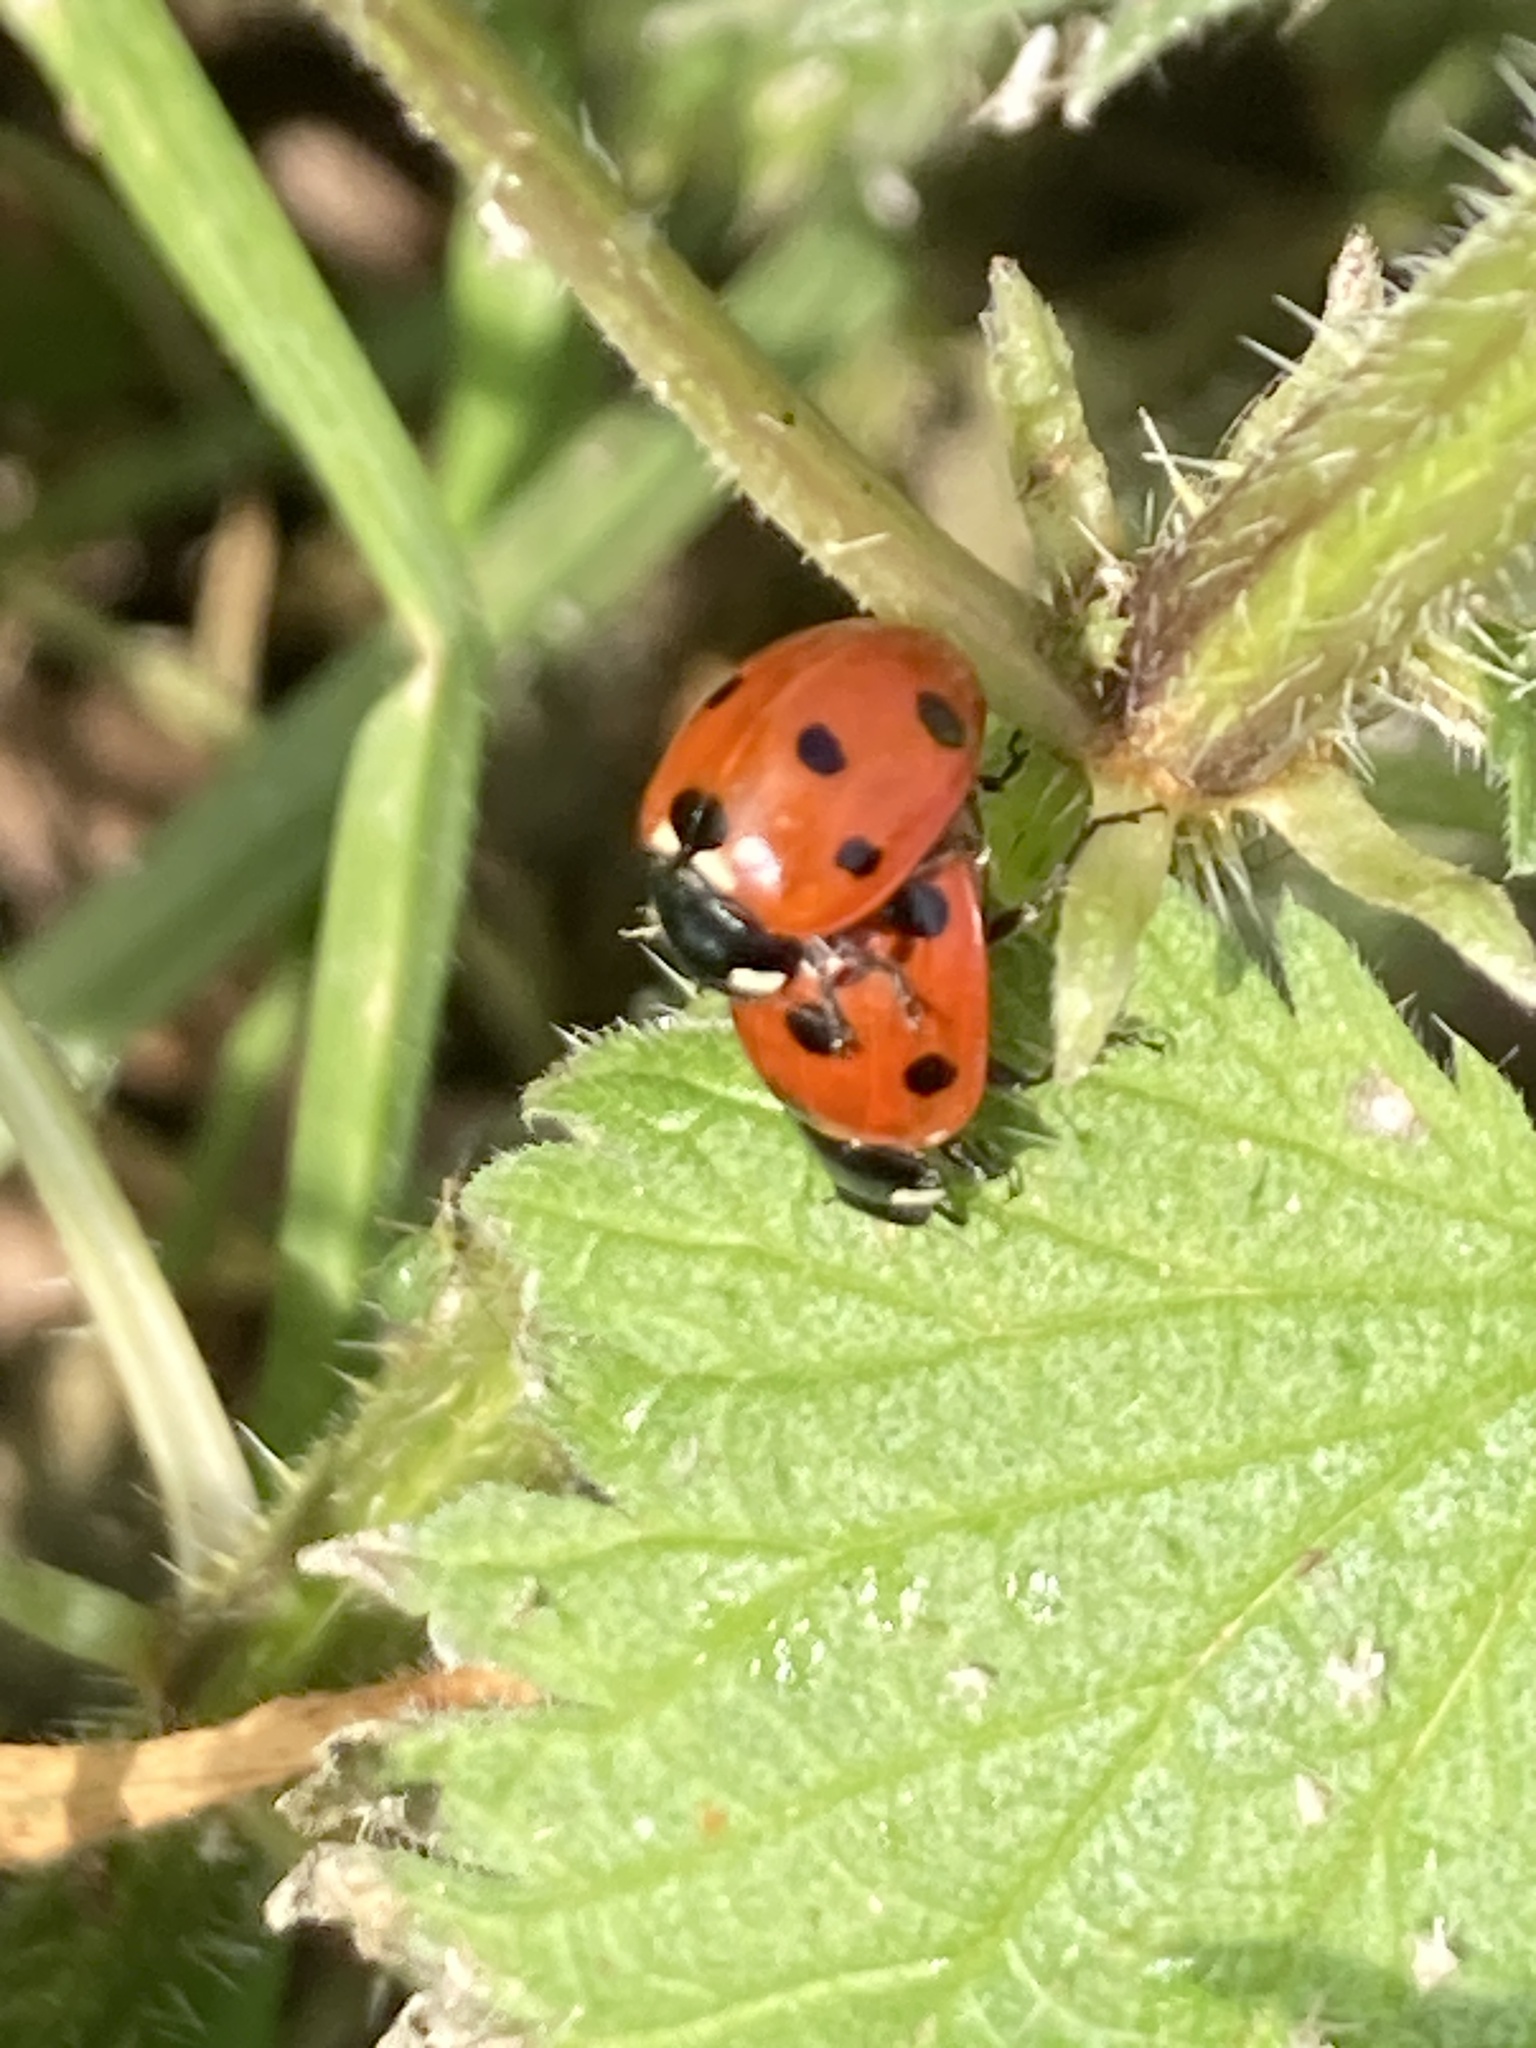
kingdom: Animalia
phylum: Arthropoda
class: Insecta
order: Coleoptera
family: Coccinellidae
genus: Coccinella
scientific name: Coccinella septempunctata
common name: Sevenspotted lady beetle
